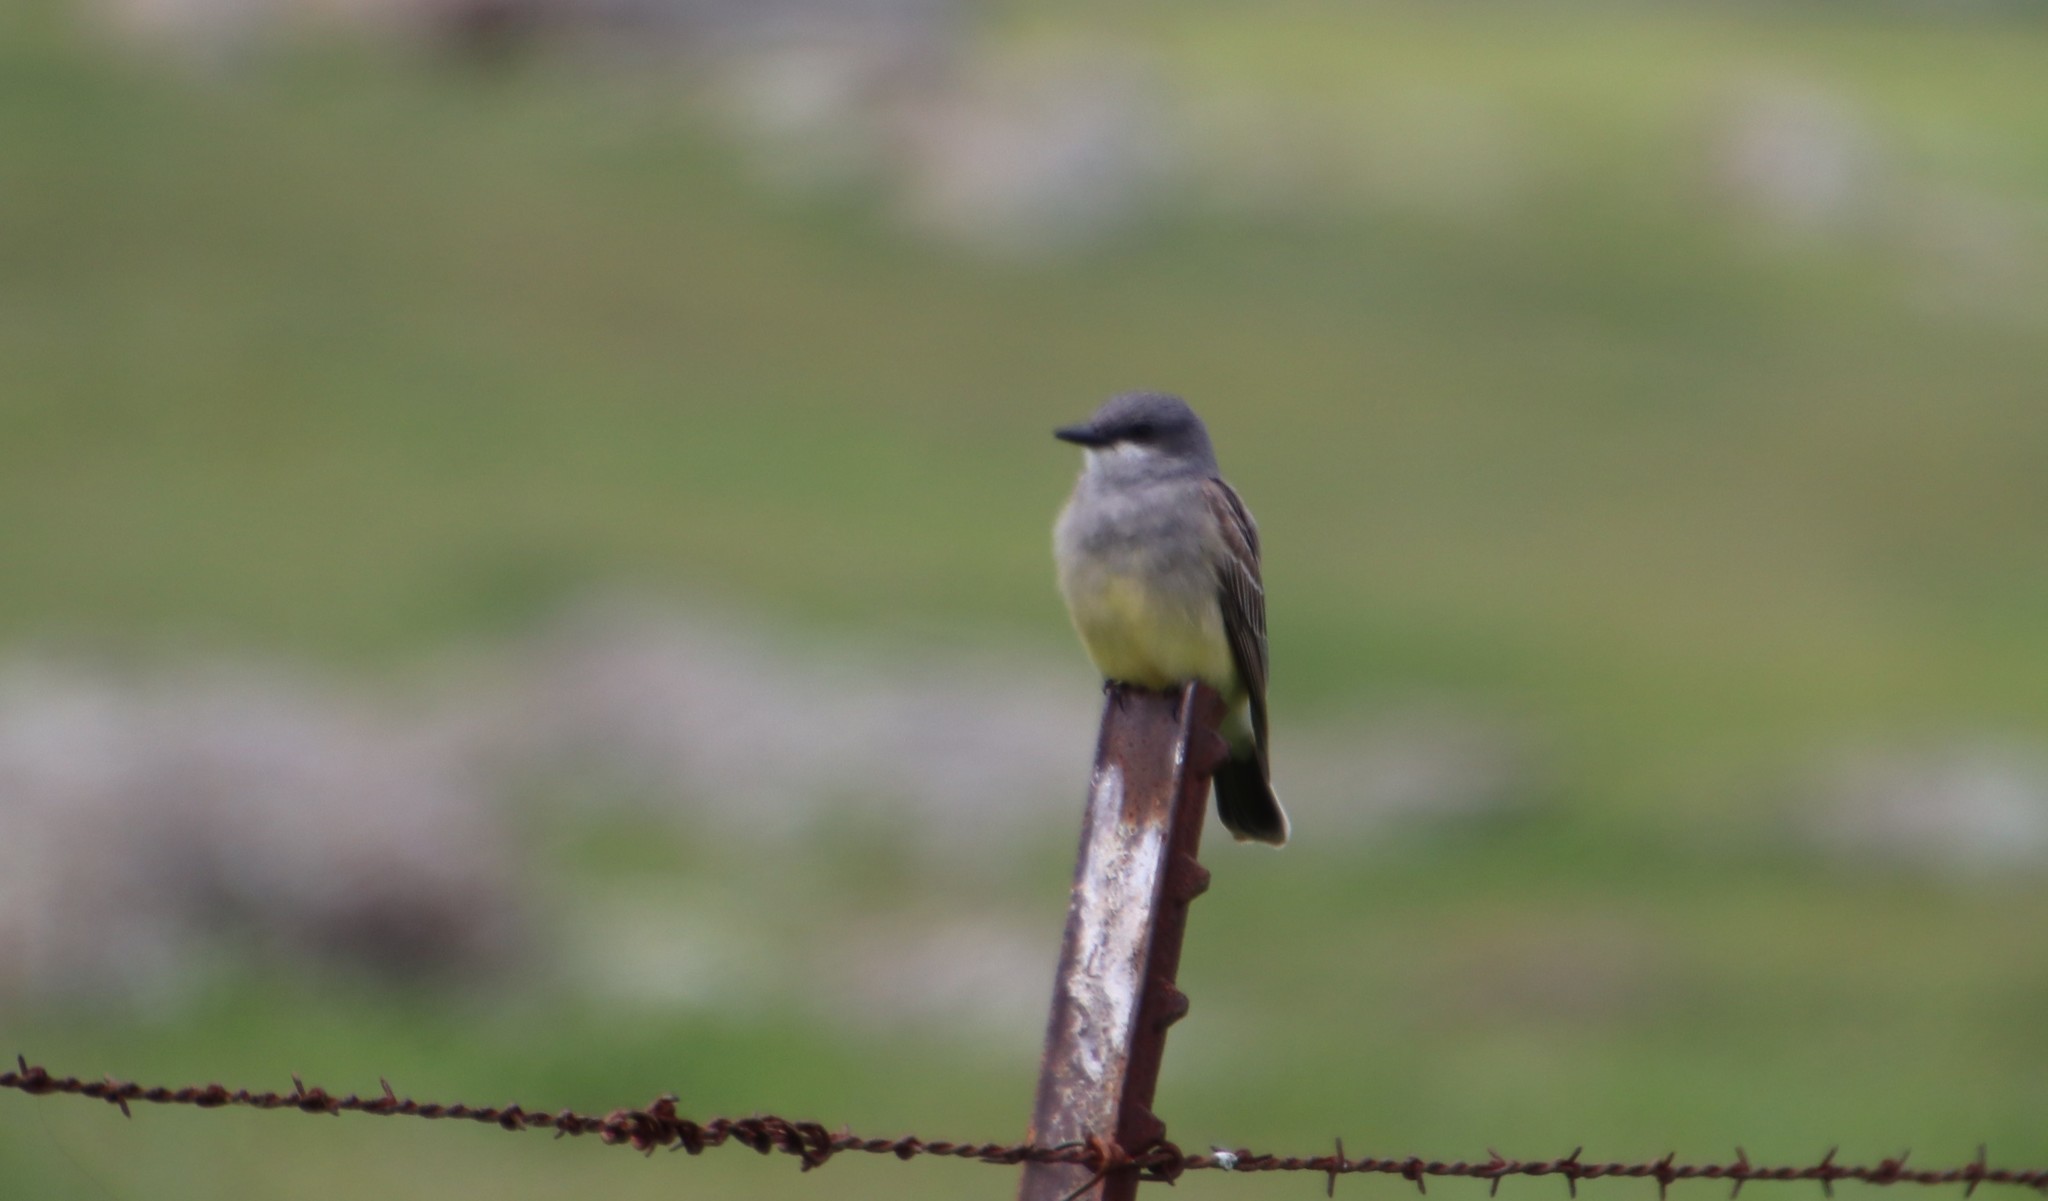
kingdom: Animalia
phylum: Chordata
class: Aves
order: Passeriformes
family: Tyrannidae
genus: Tyrannus
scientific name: Tyrannus vociferans
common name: Cassin's kingbird
